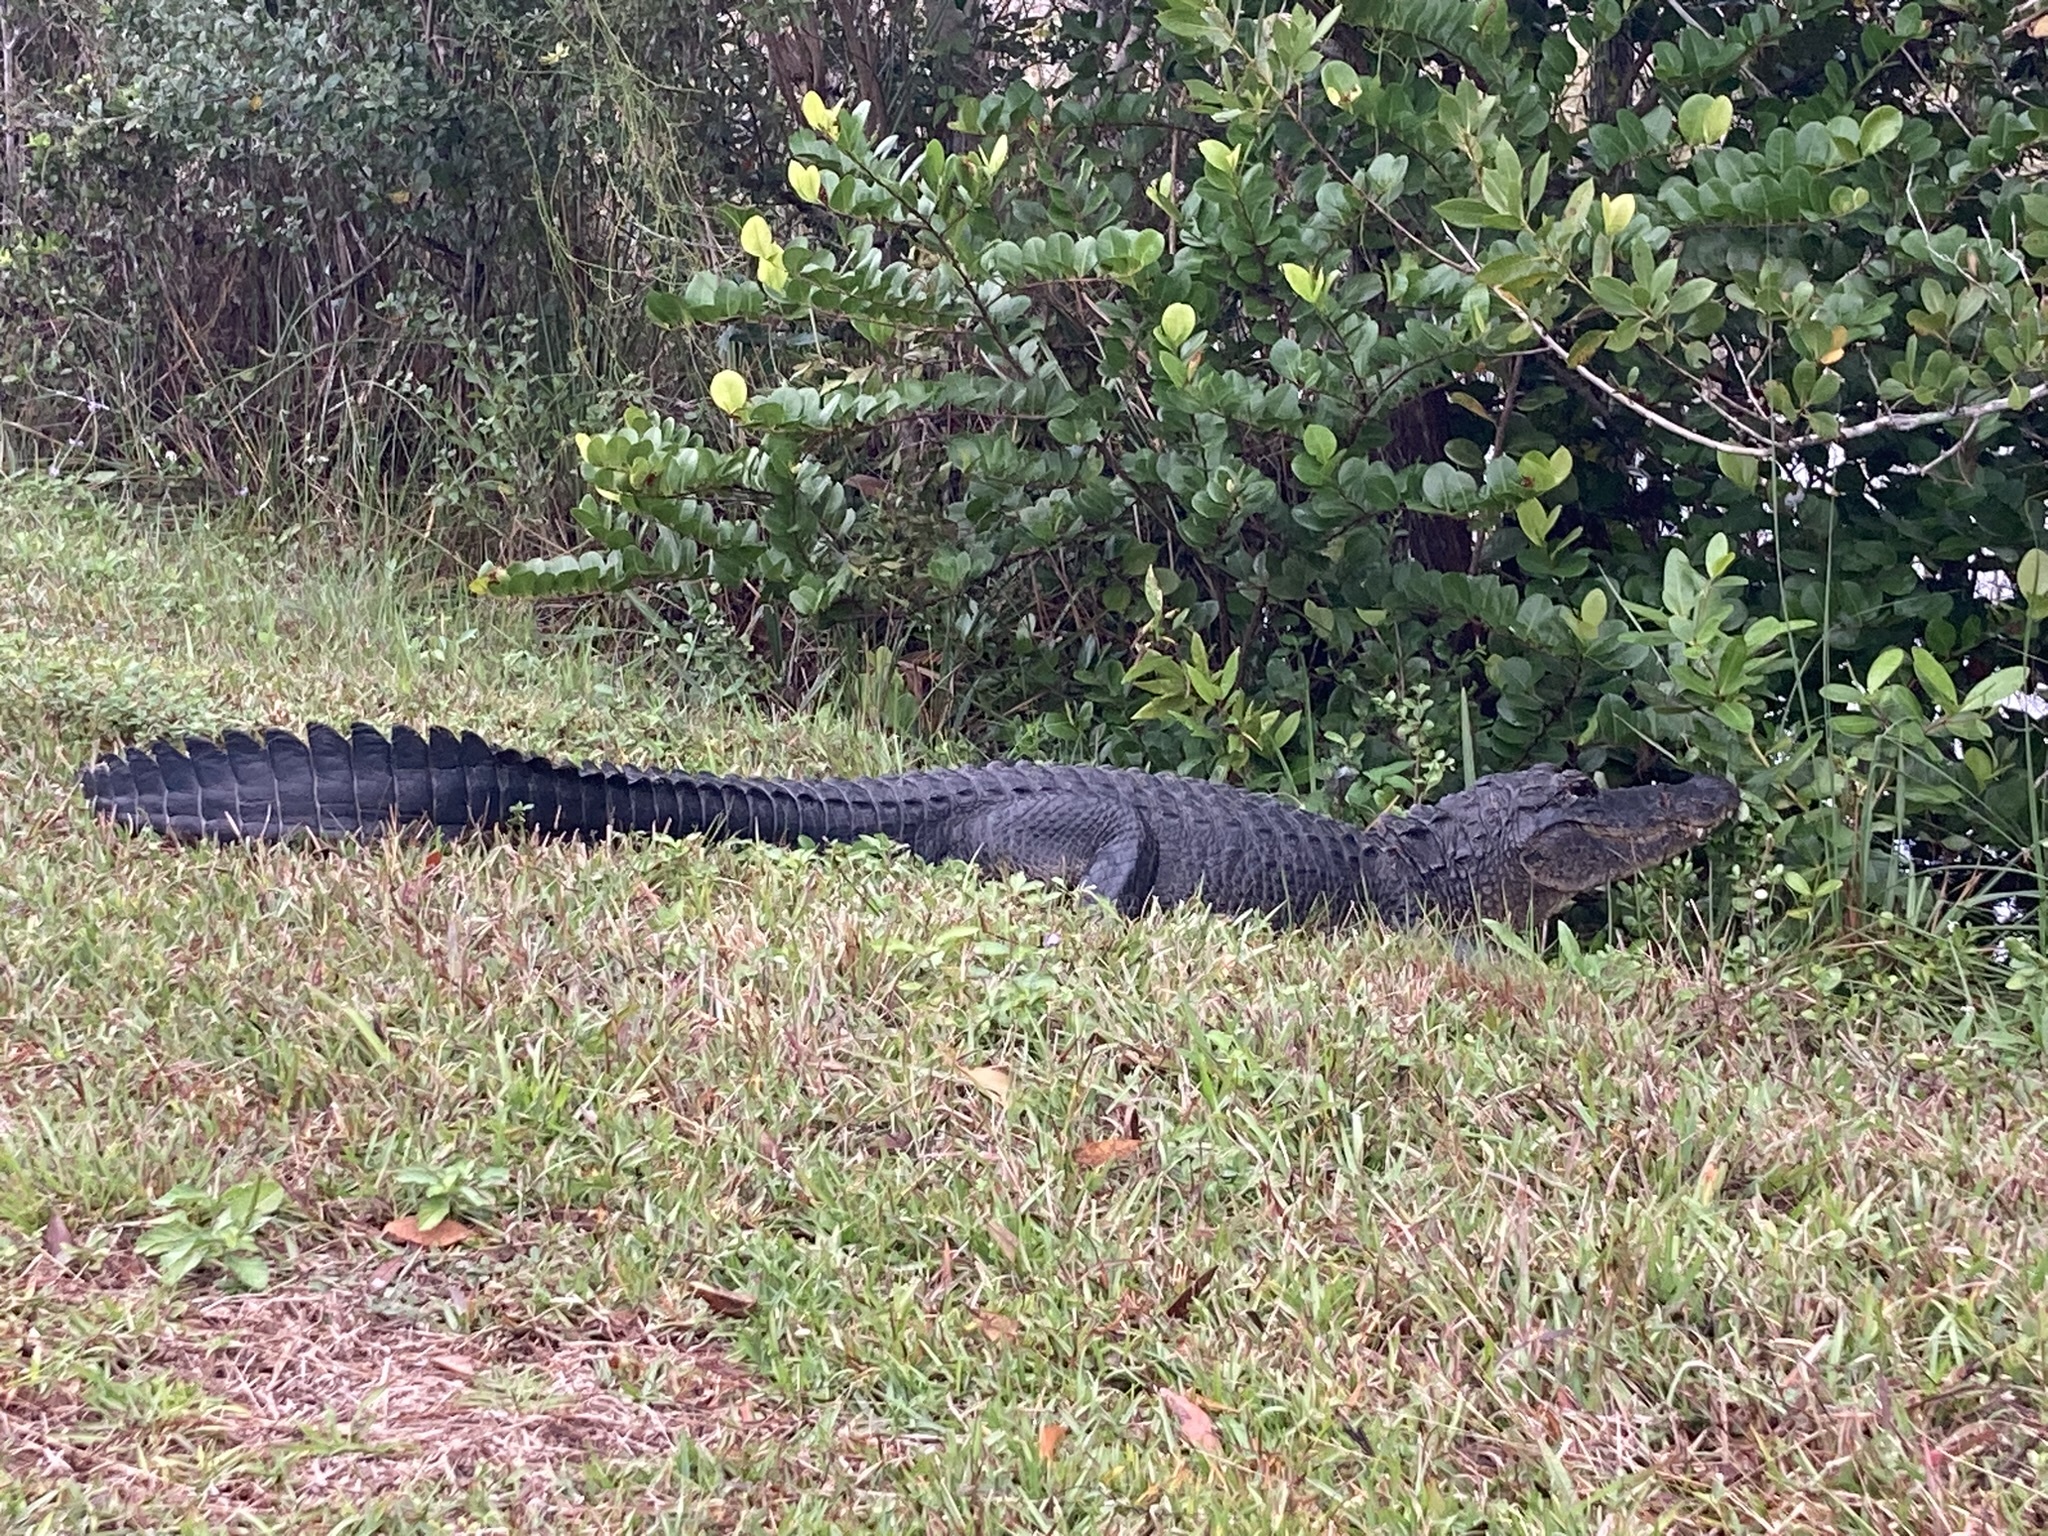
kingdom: Animalia
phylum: Chordata
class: Crocodylia
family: Alligatoridae
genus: Alligator
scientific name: Alligator mississippiensis
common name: American alligator
